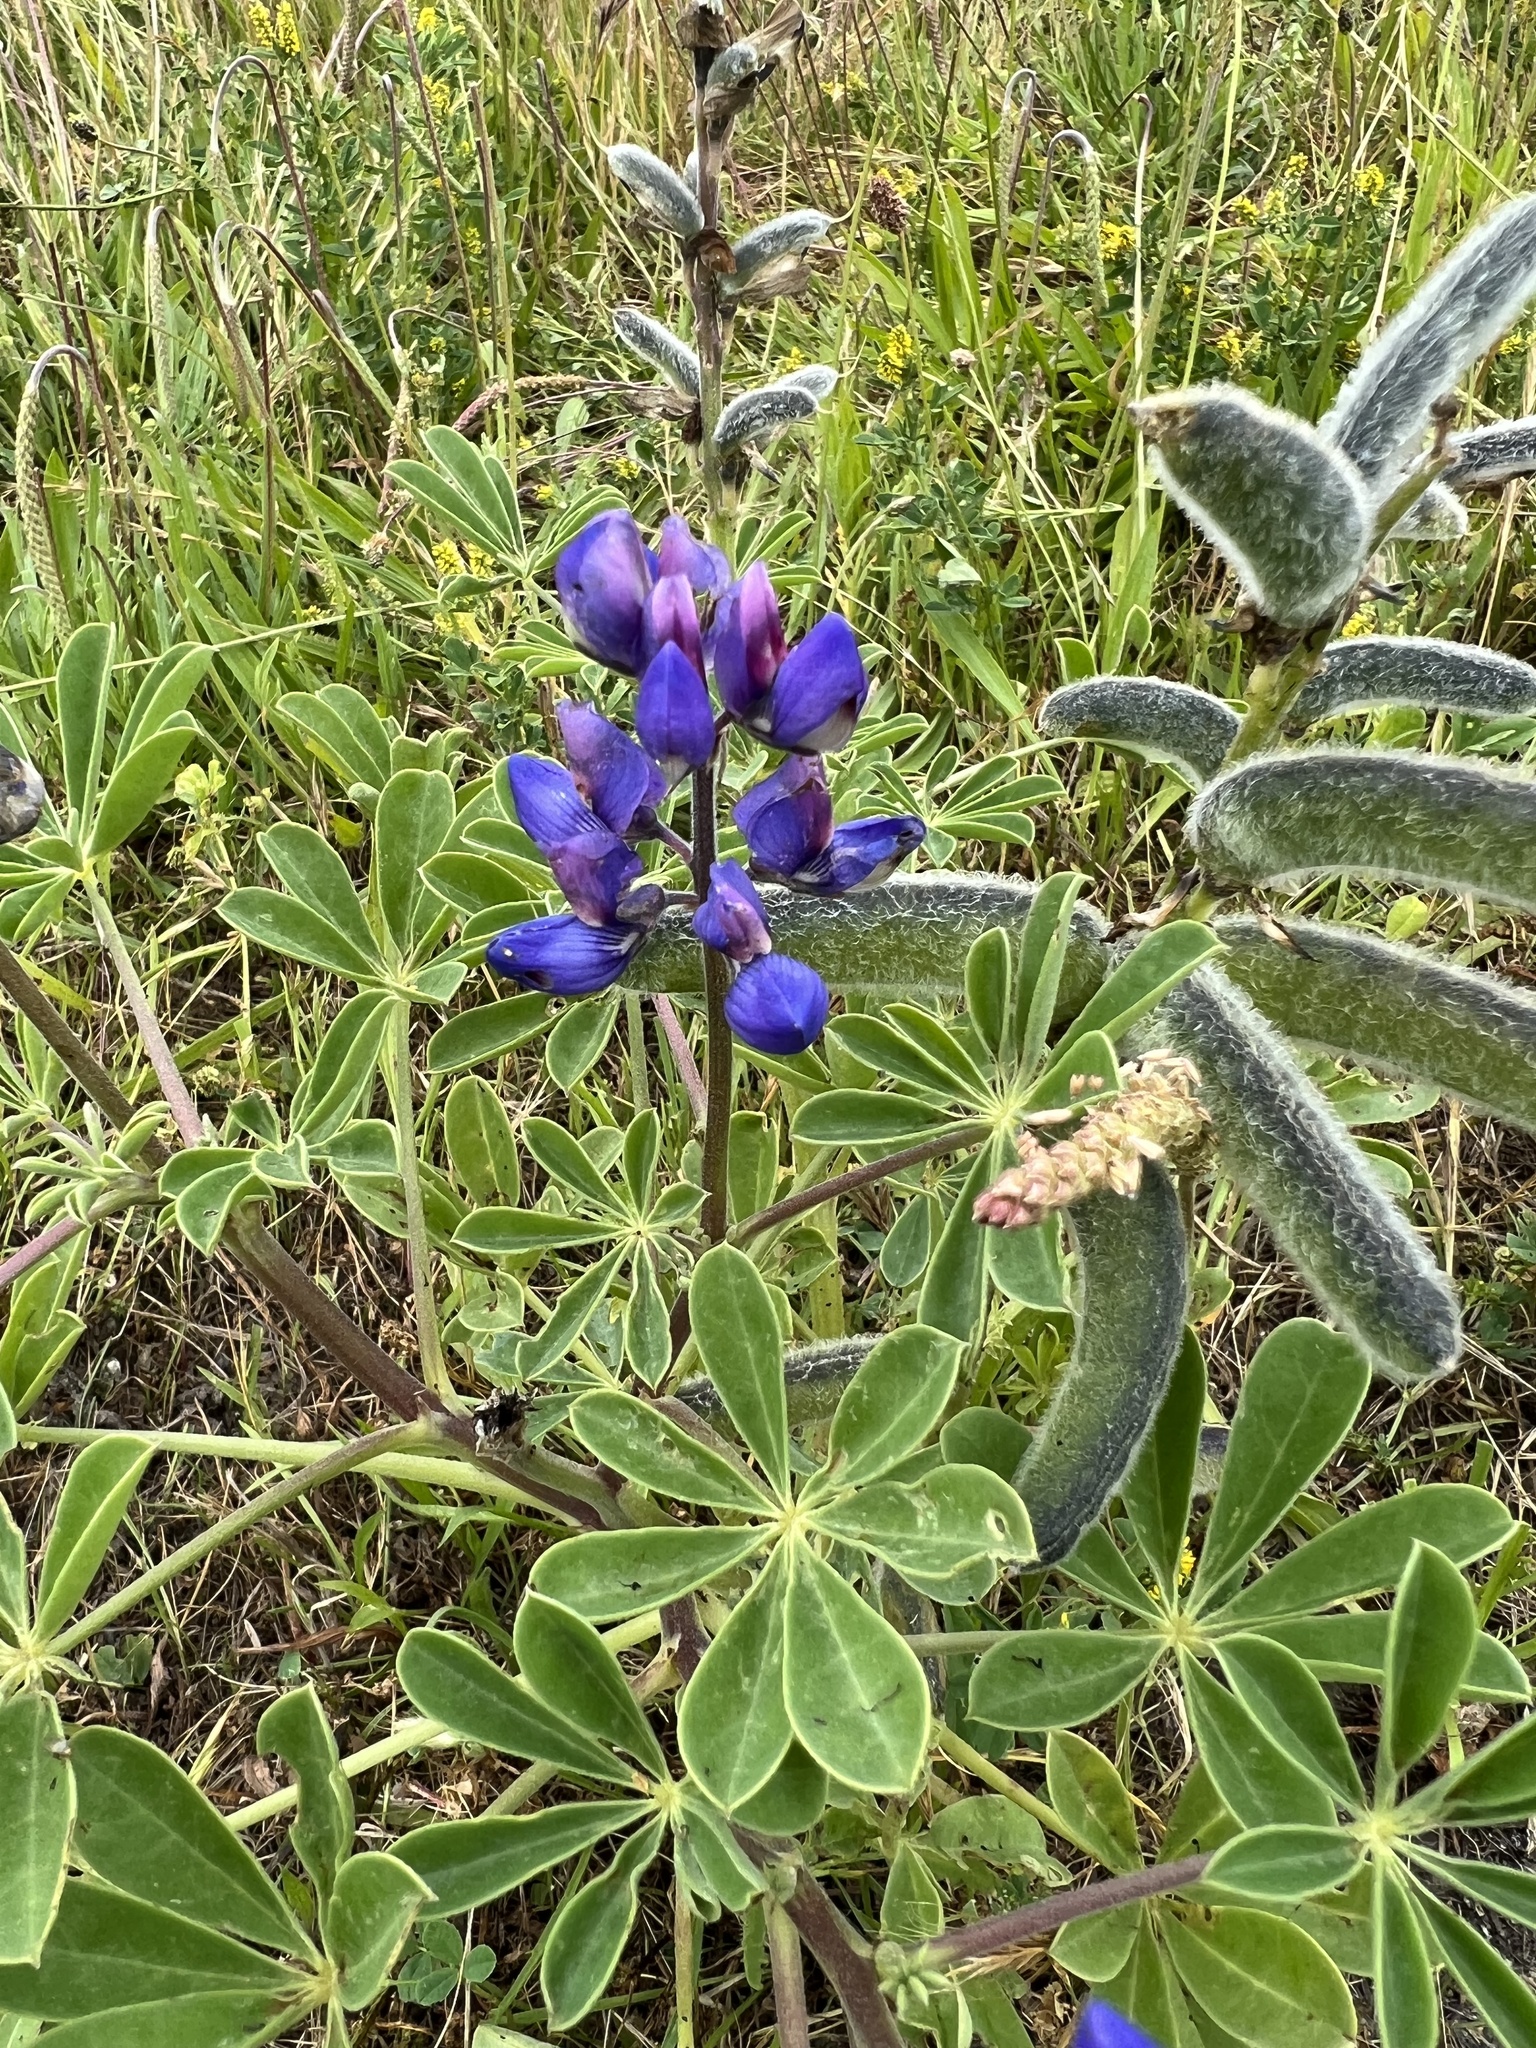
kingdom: Plantae
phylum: Tracheophyta
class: Magnoliopsida
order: Fabales
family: Fabaceae
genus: Lupinus
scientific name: Lupinus succulentus
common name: Arroyo lupine
